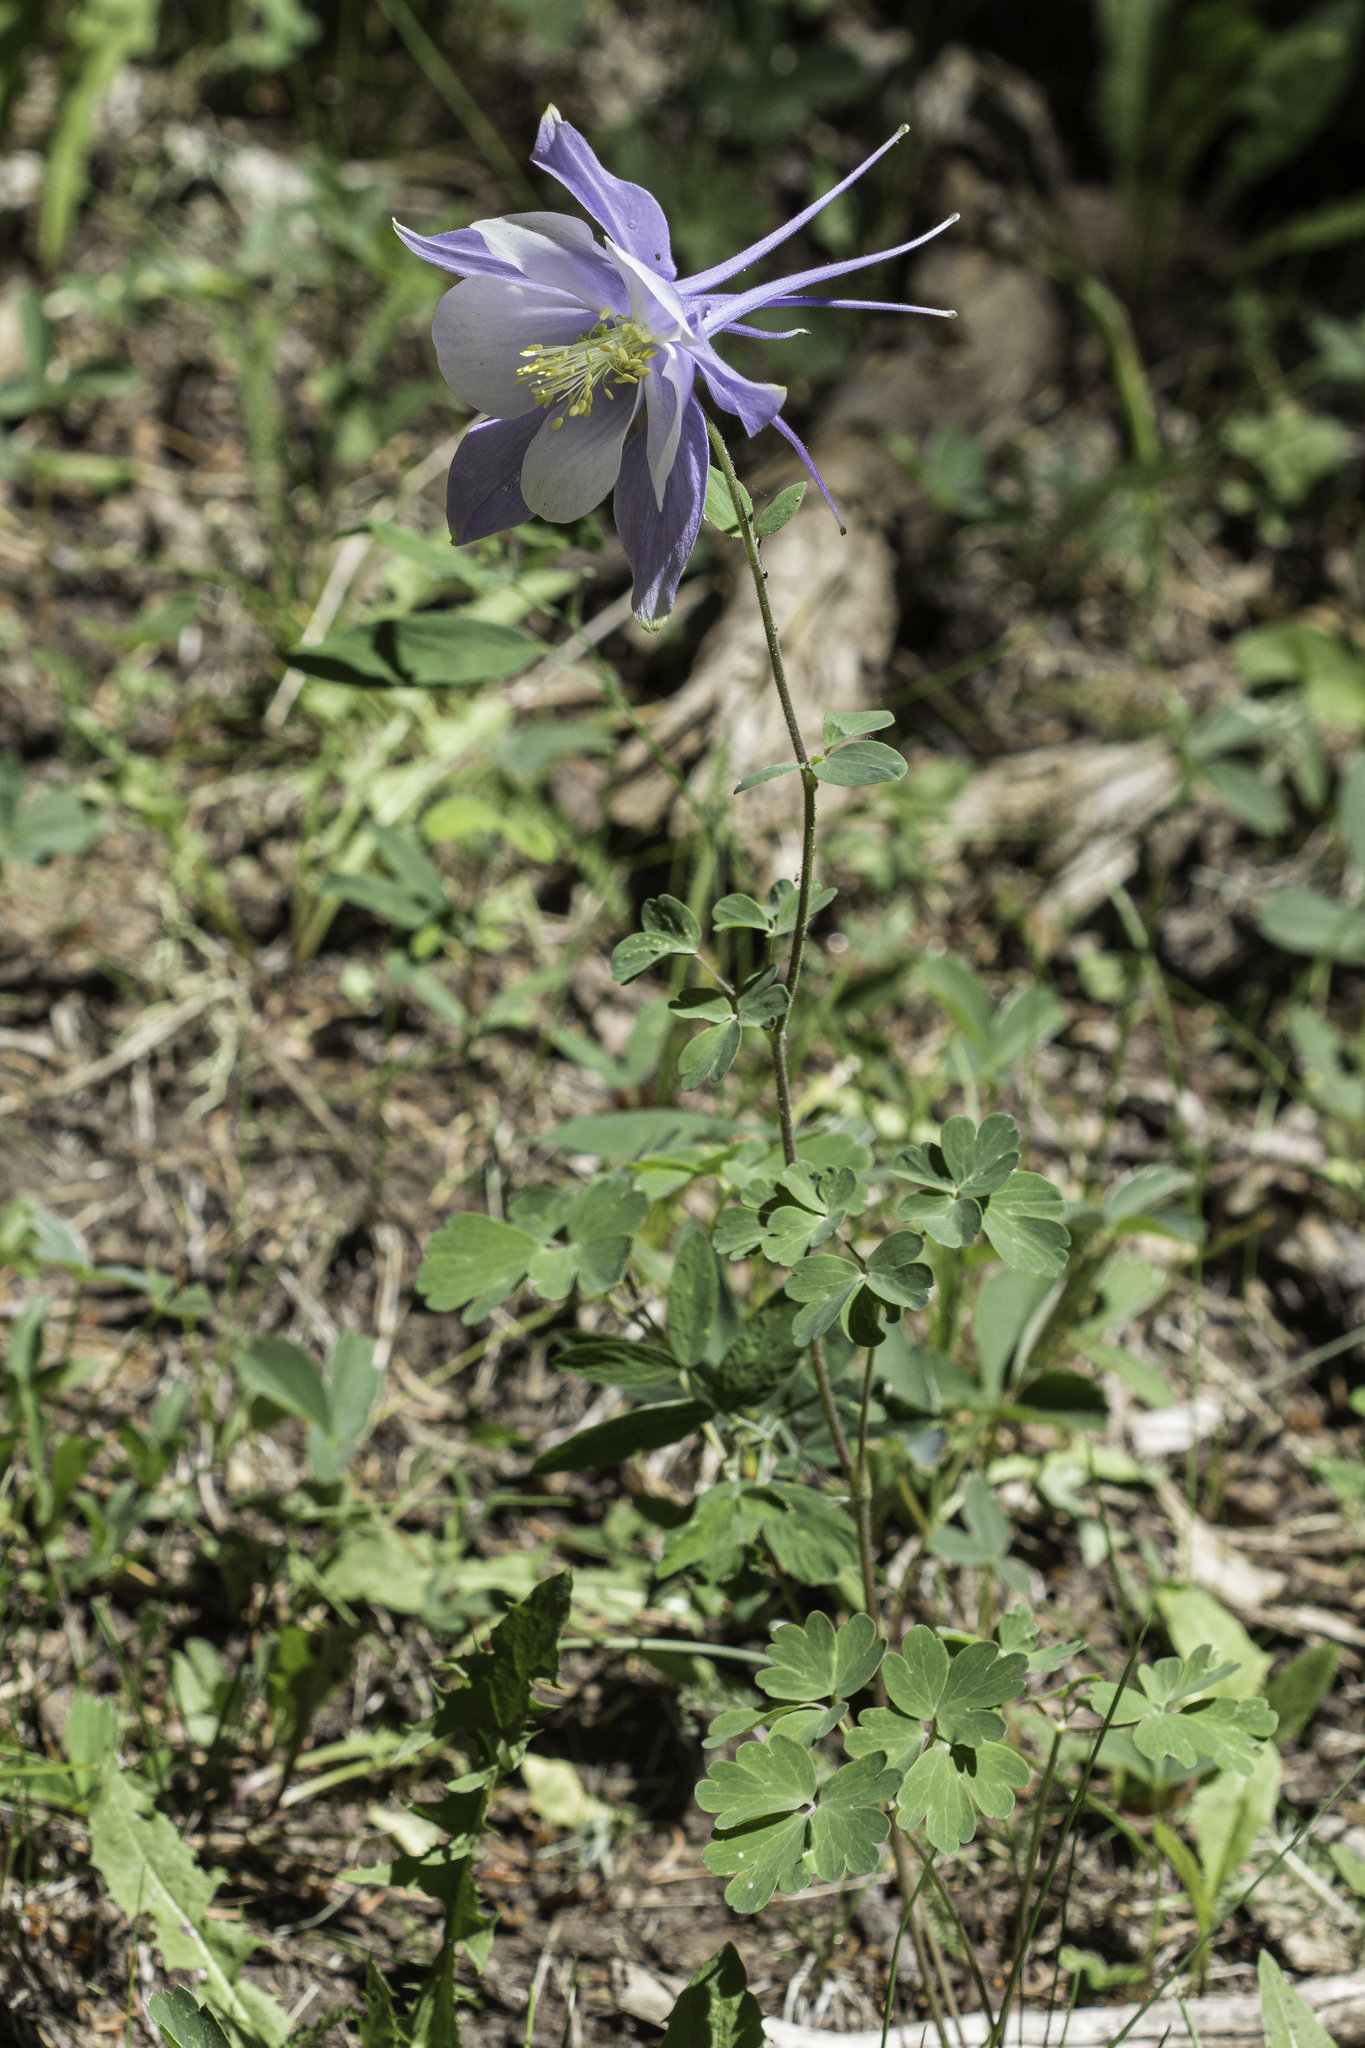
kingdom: Plantae
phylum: Tracheophyta
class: Magnoliopsida
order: Ranunculales
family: Ranunculaceae
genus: Aquilegia
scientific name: Aquilegia coerulea
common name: Rocky mountain columbine
